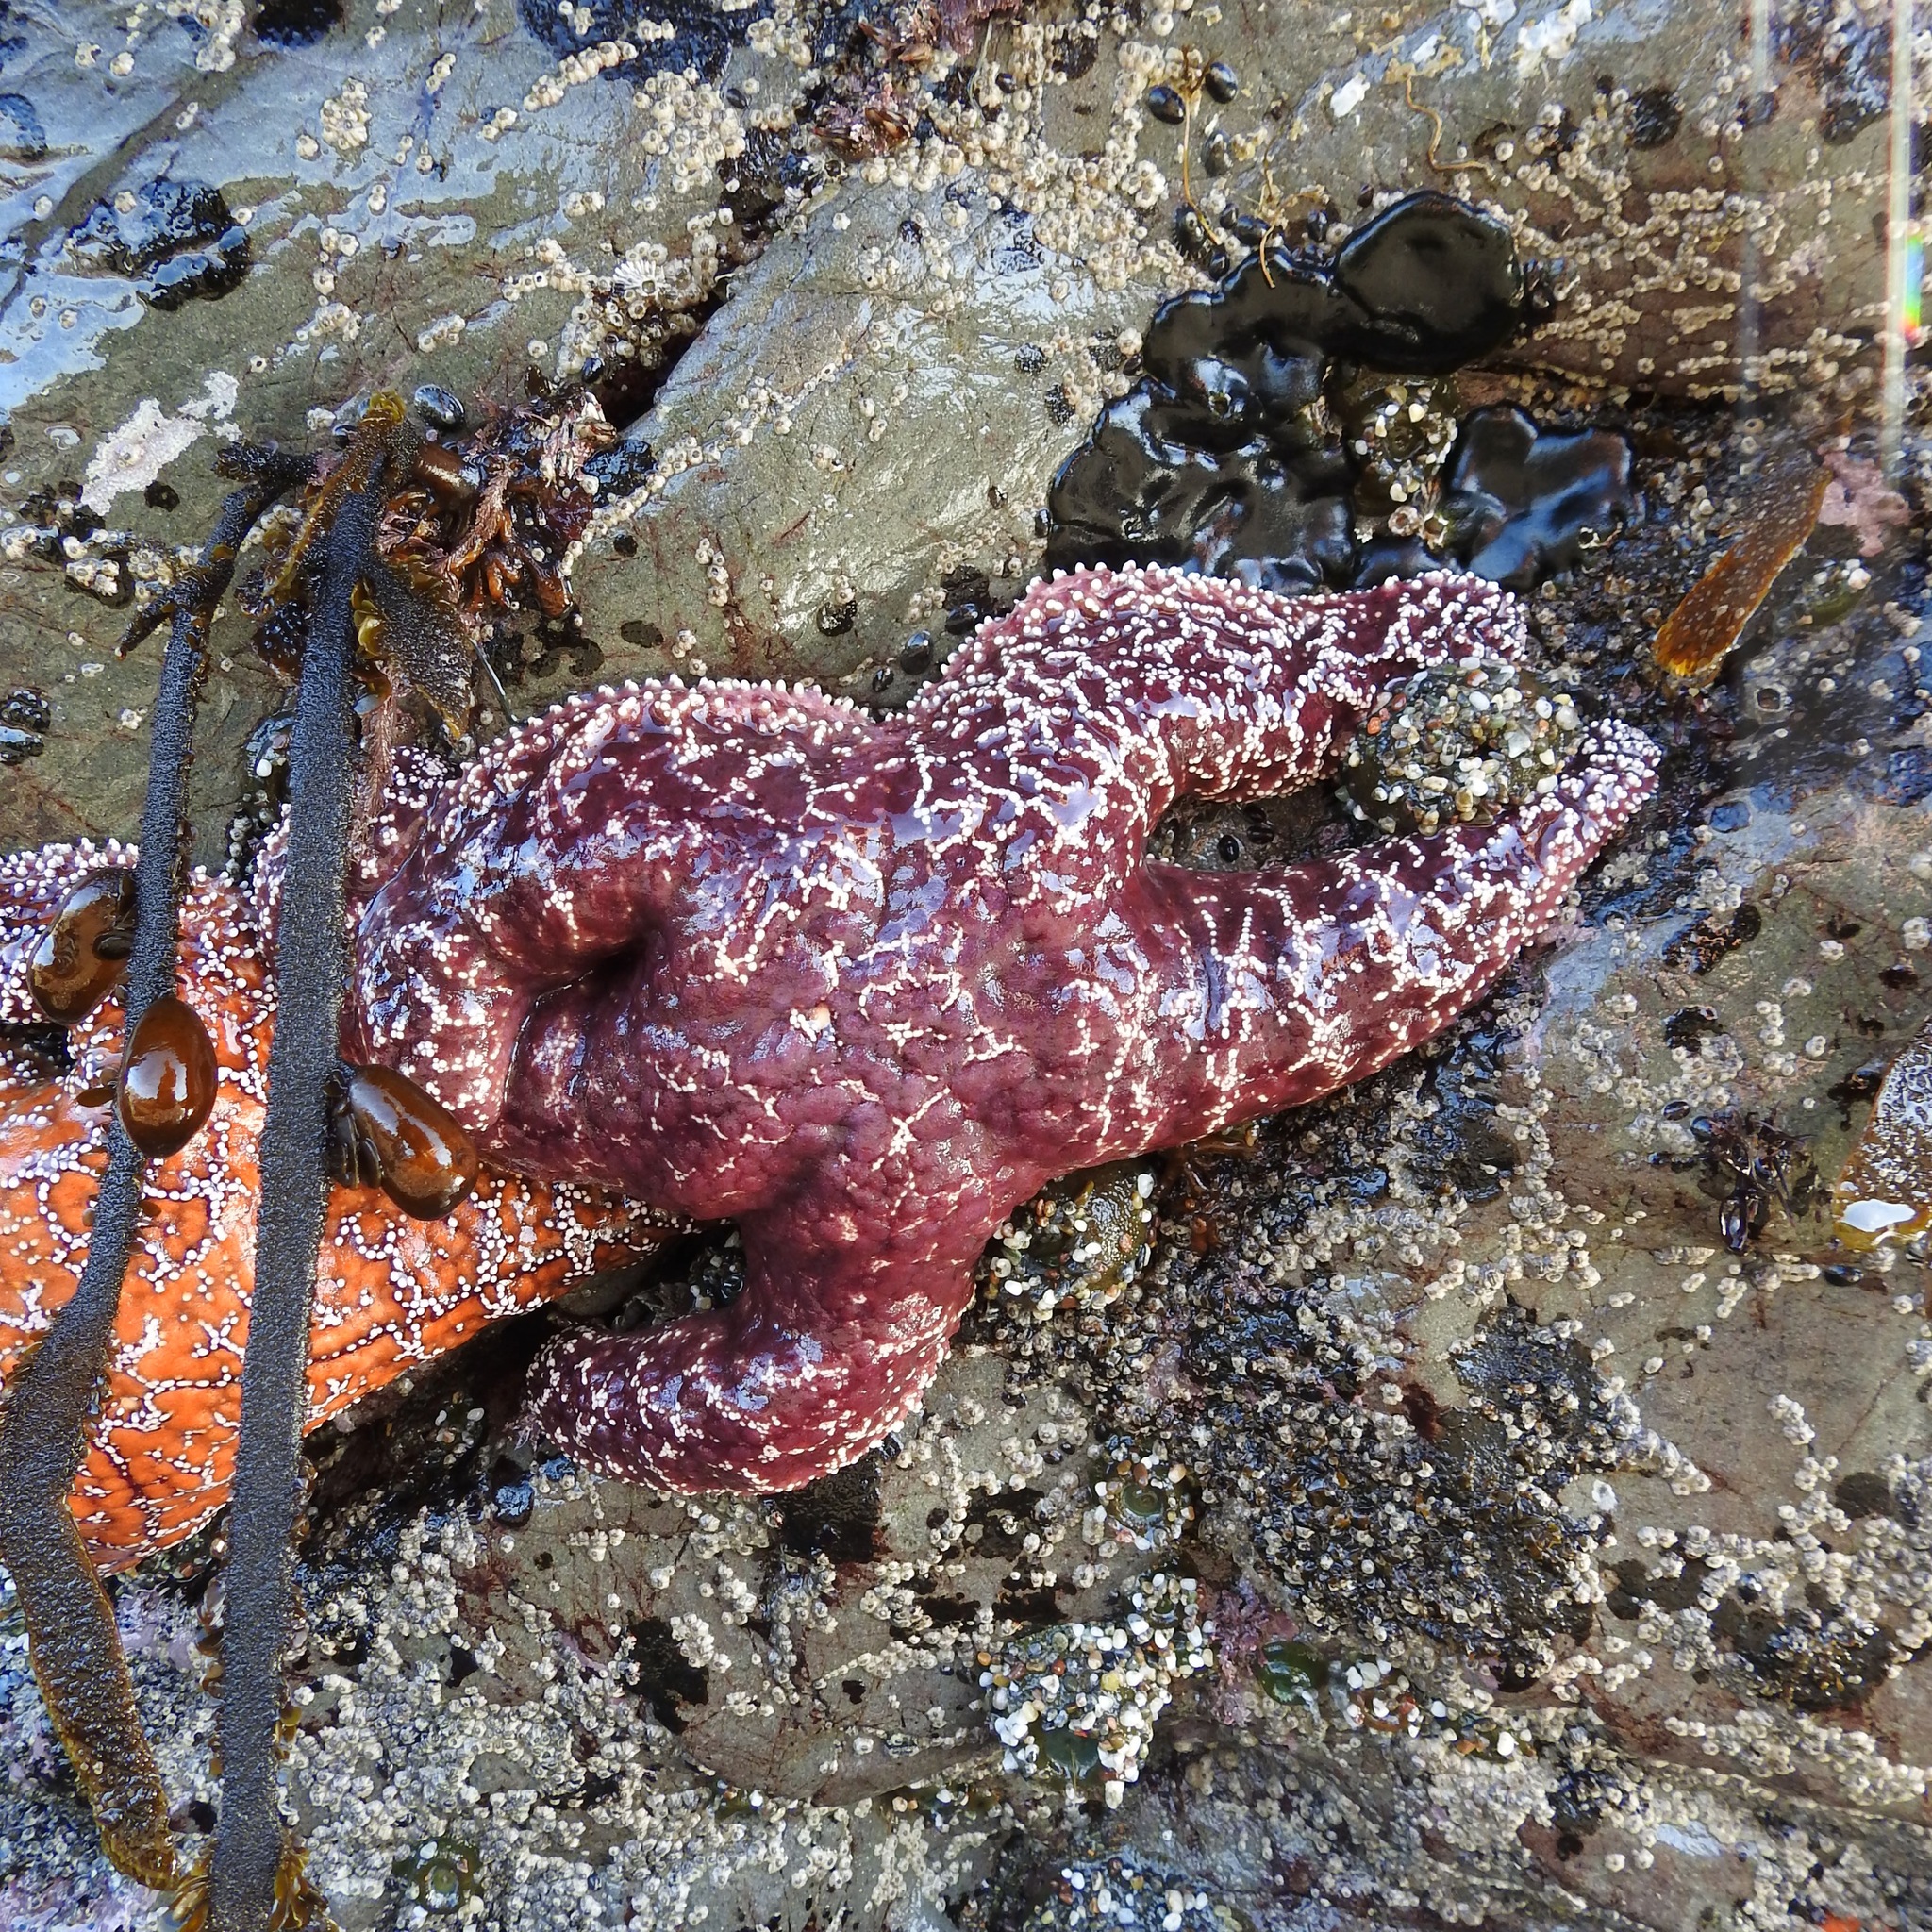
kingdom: Animalia
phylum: Echinodermata
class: Asteroidea
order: Forcipulatida
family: Asteriidae
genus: Pisaster
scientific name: Pisaster ochraceus
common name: Ochre stars
